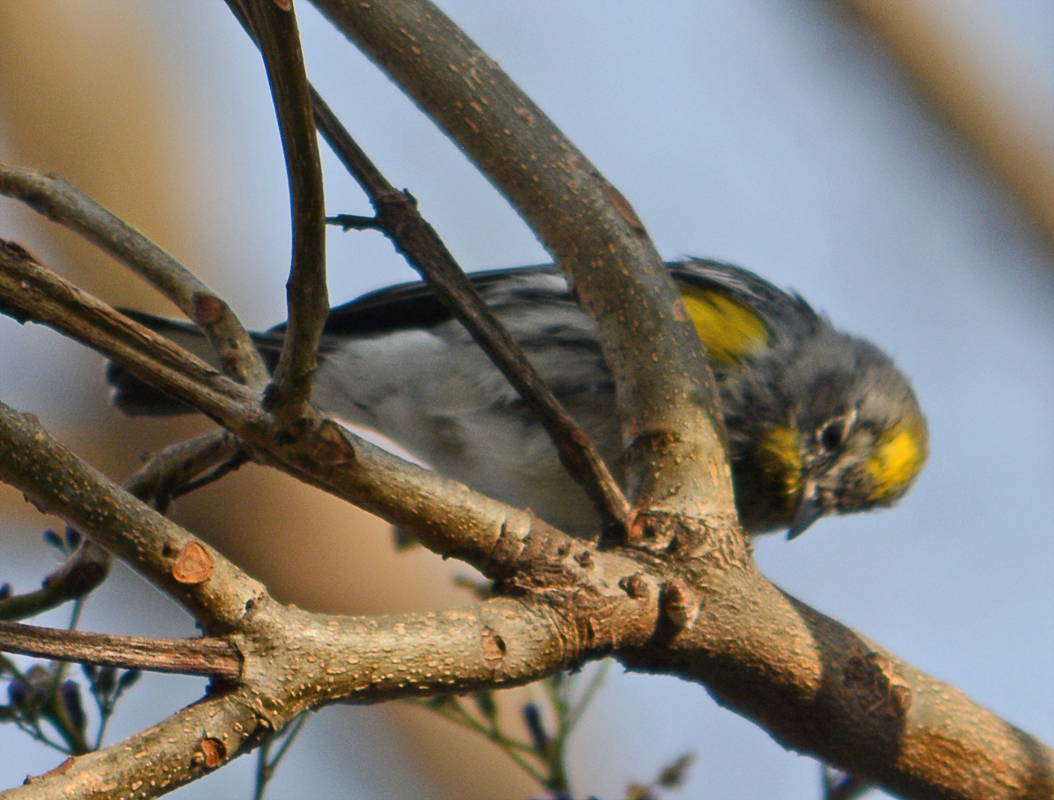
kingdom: Animalia
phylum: Chordata
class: Aves
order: Passeriformes
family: Parulidae
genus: Setophaga
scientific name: Setophaga auduboni
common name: Audubon's warbler
